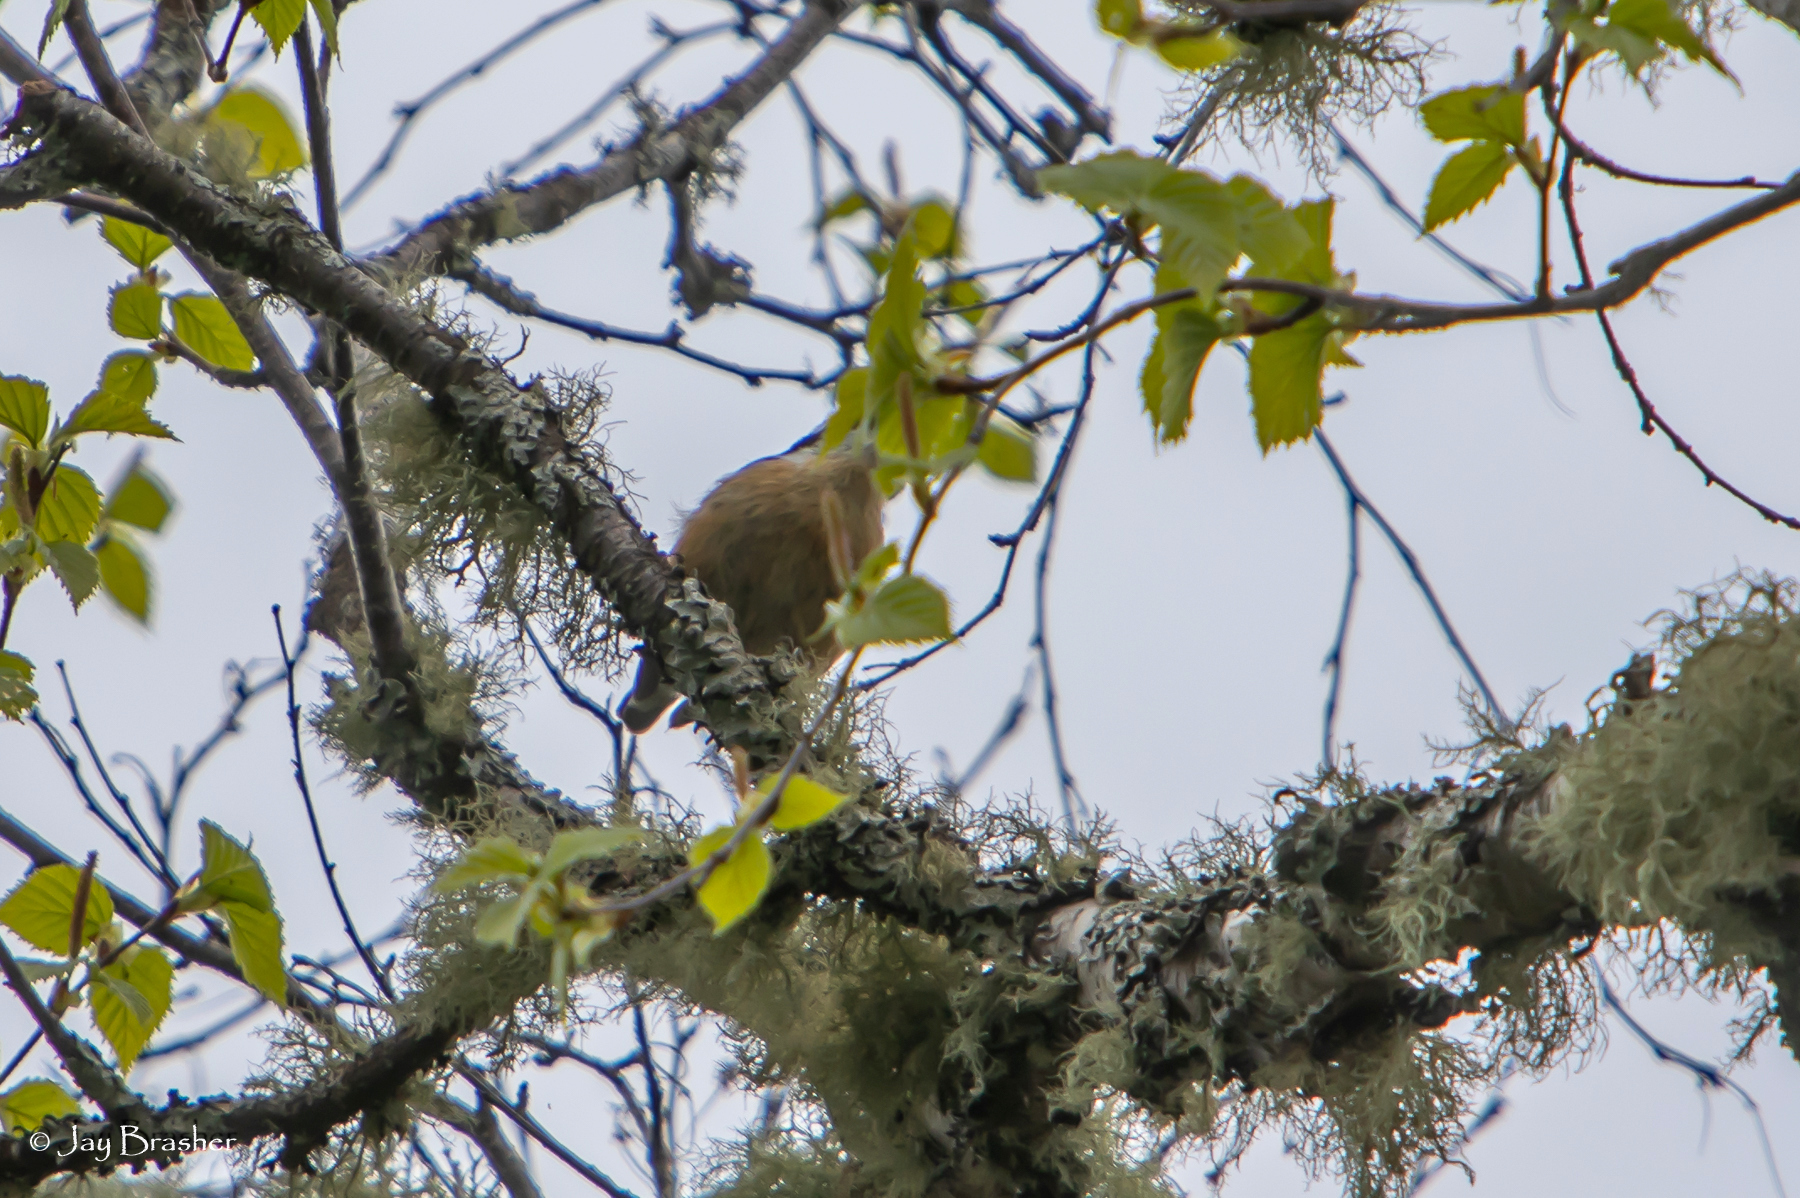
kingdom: Animalia
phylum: Chordata
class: Aves
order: Passeriformes
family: Sittidae
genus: Sitta
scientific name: Sitta canadensis
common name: Red-breasted nuthatch
